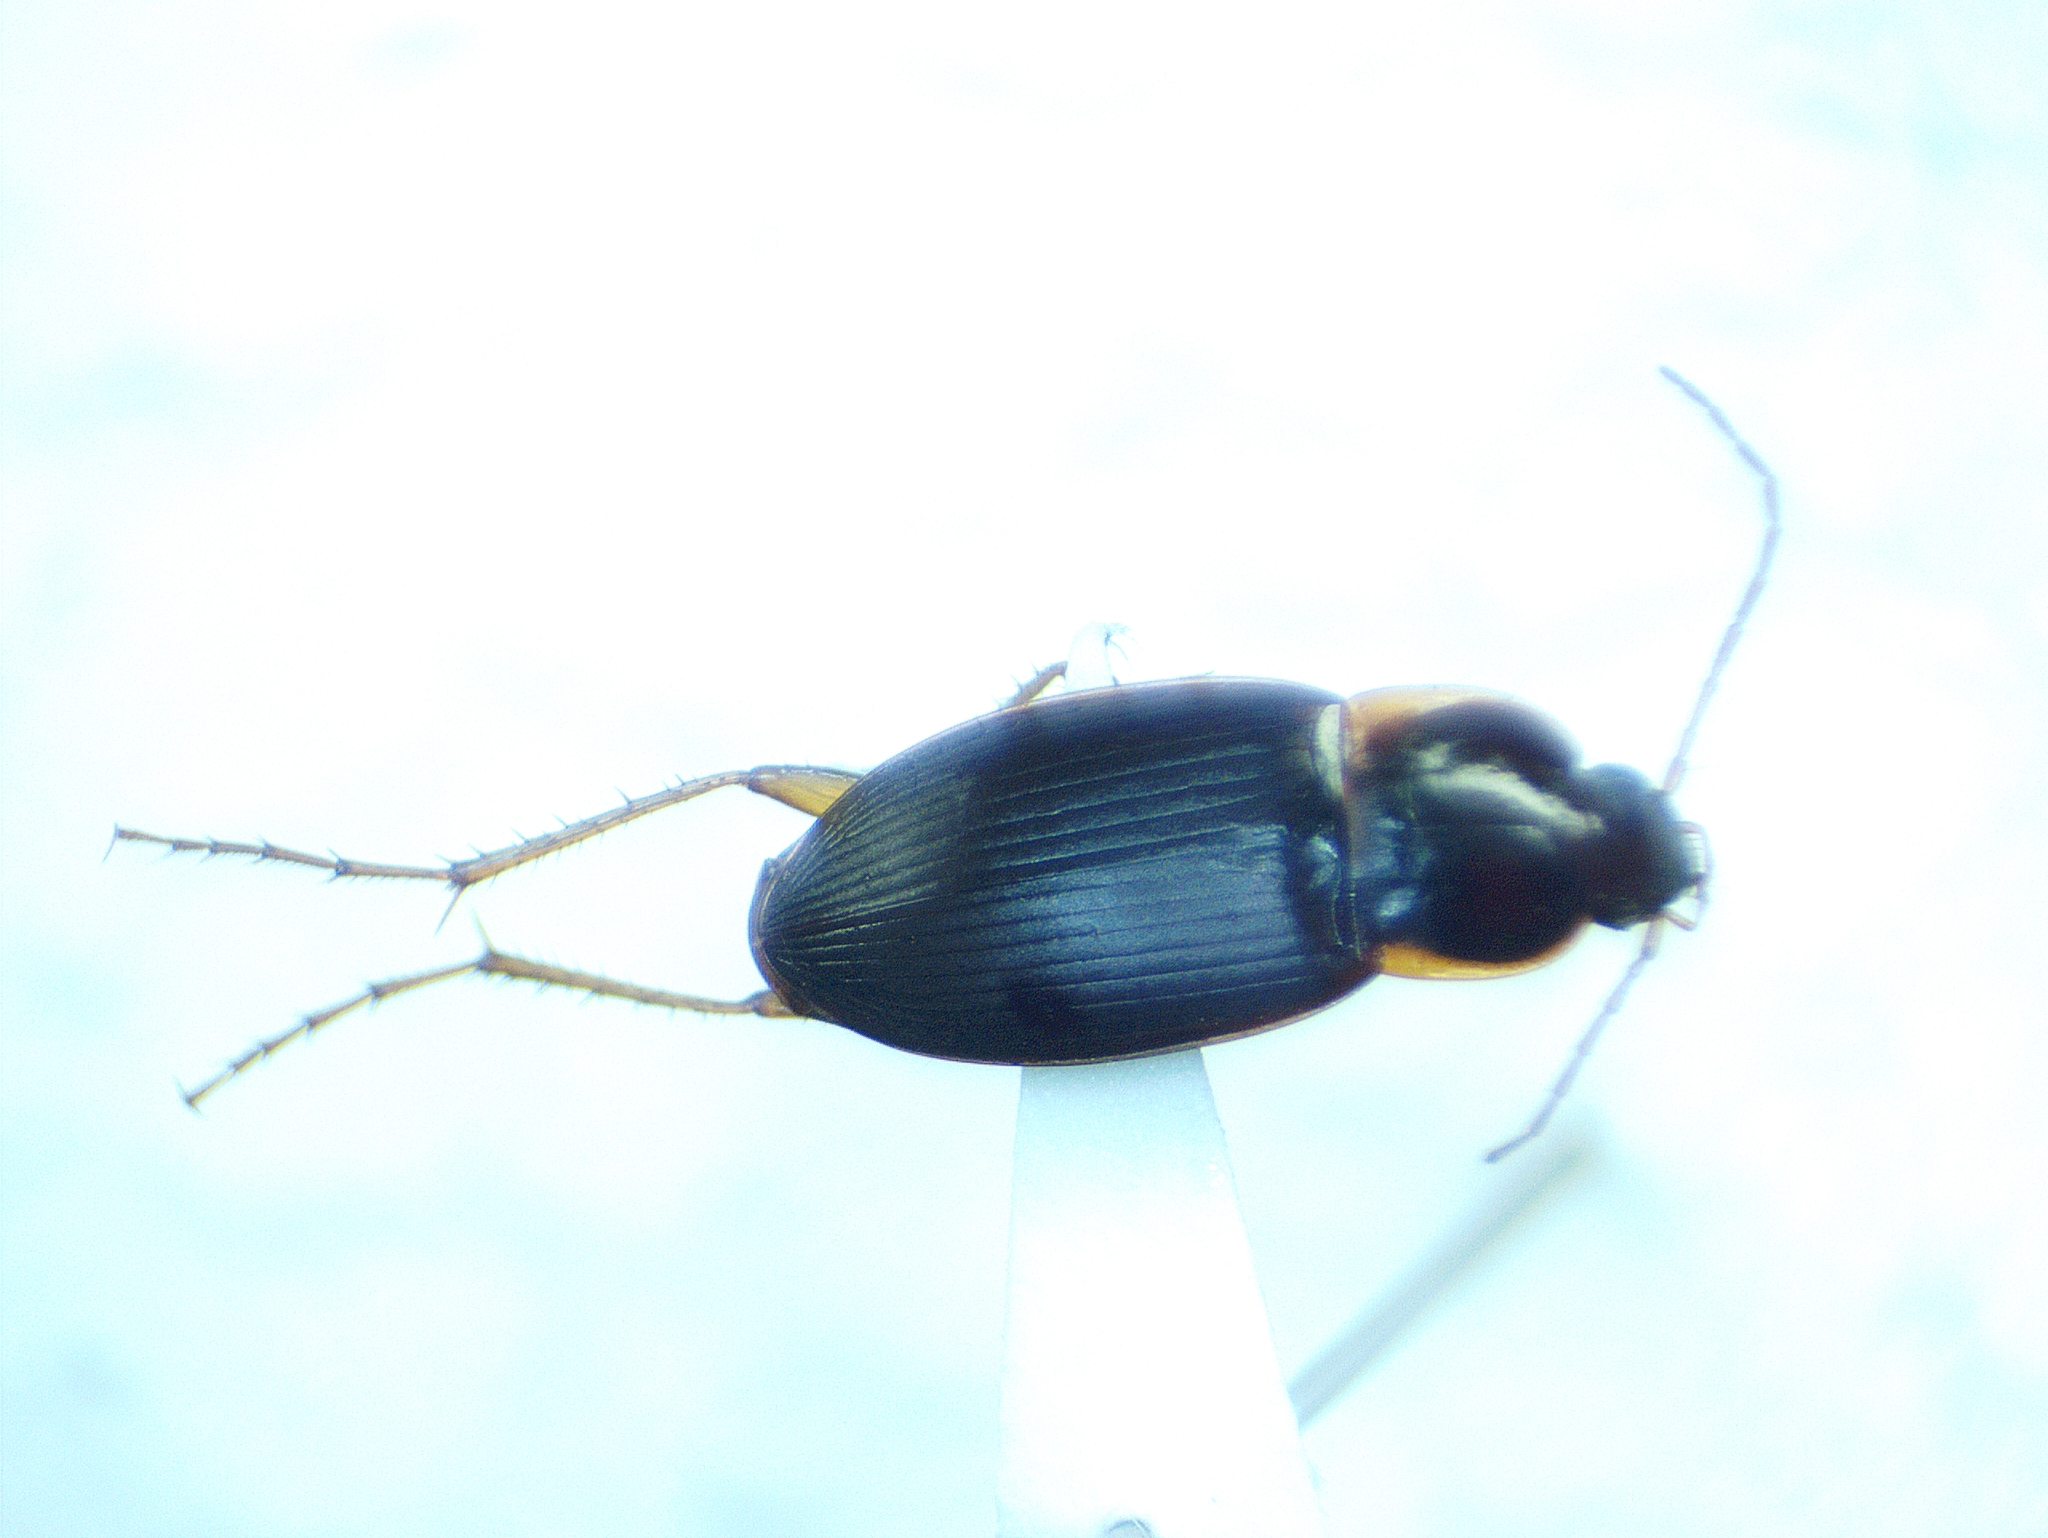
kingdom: Animalia
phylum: Arthropoda
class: Insecta
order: Coleoptera
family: Carabidae
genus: Calathus
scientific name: Calathus opaculus
